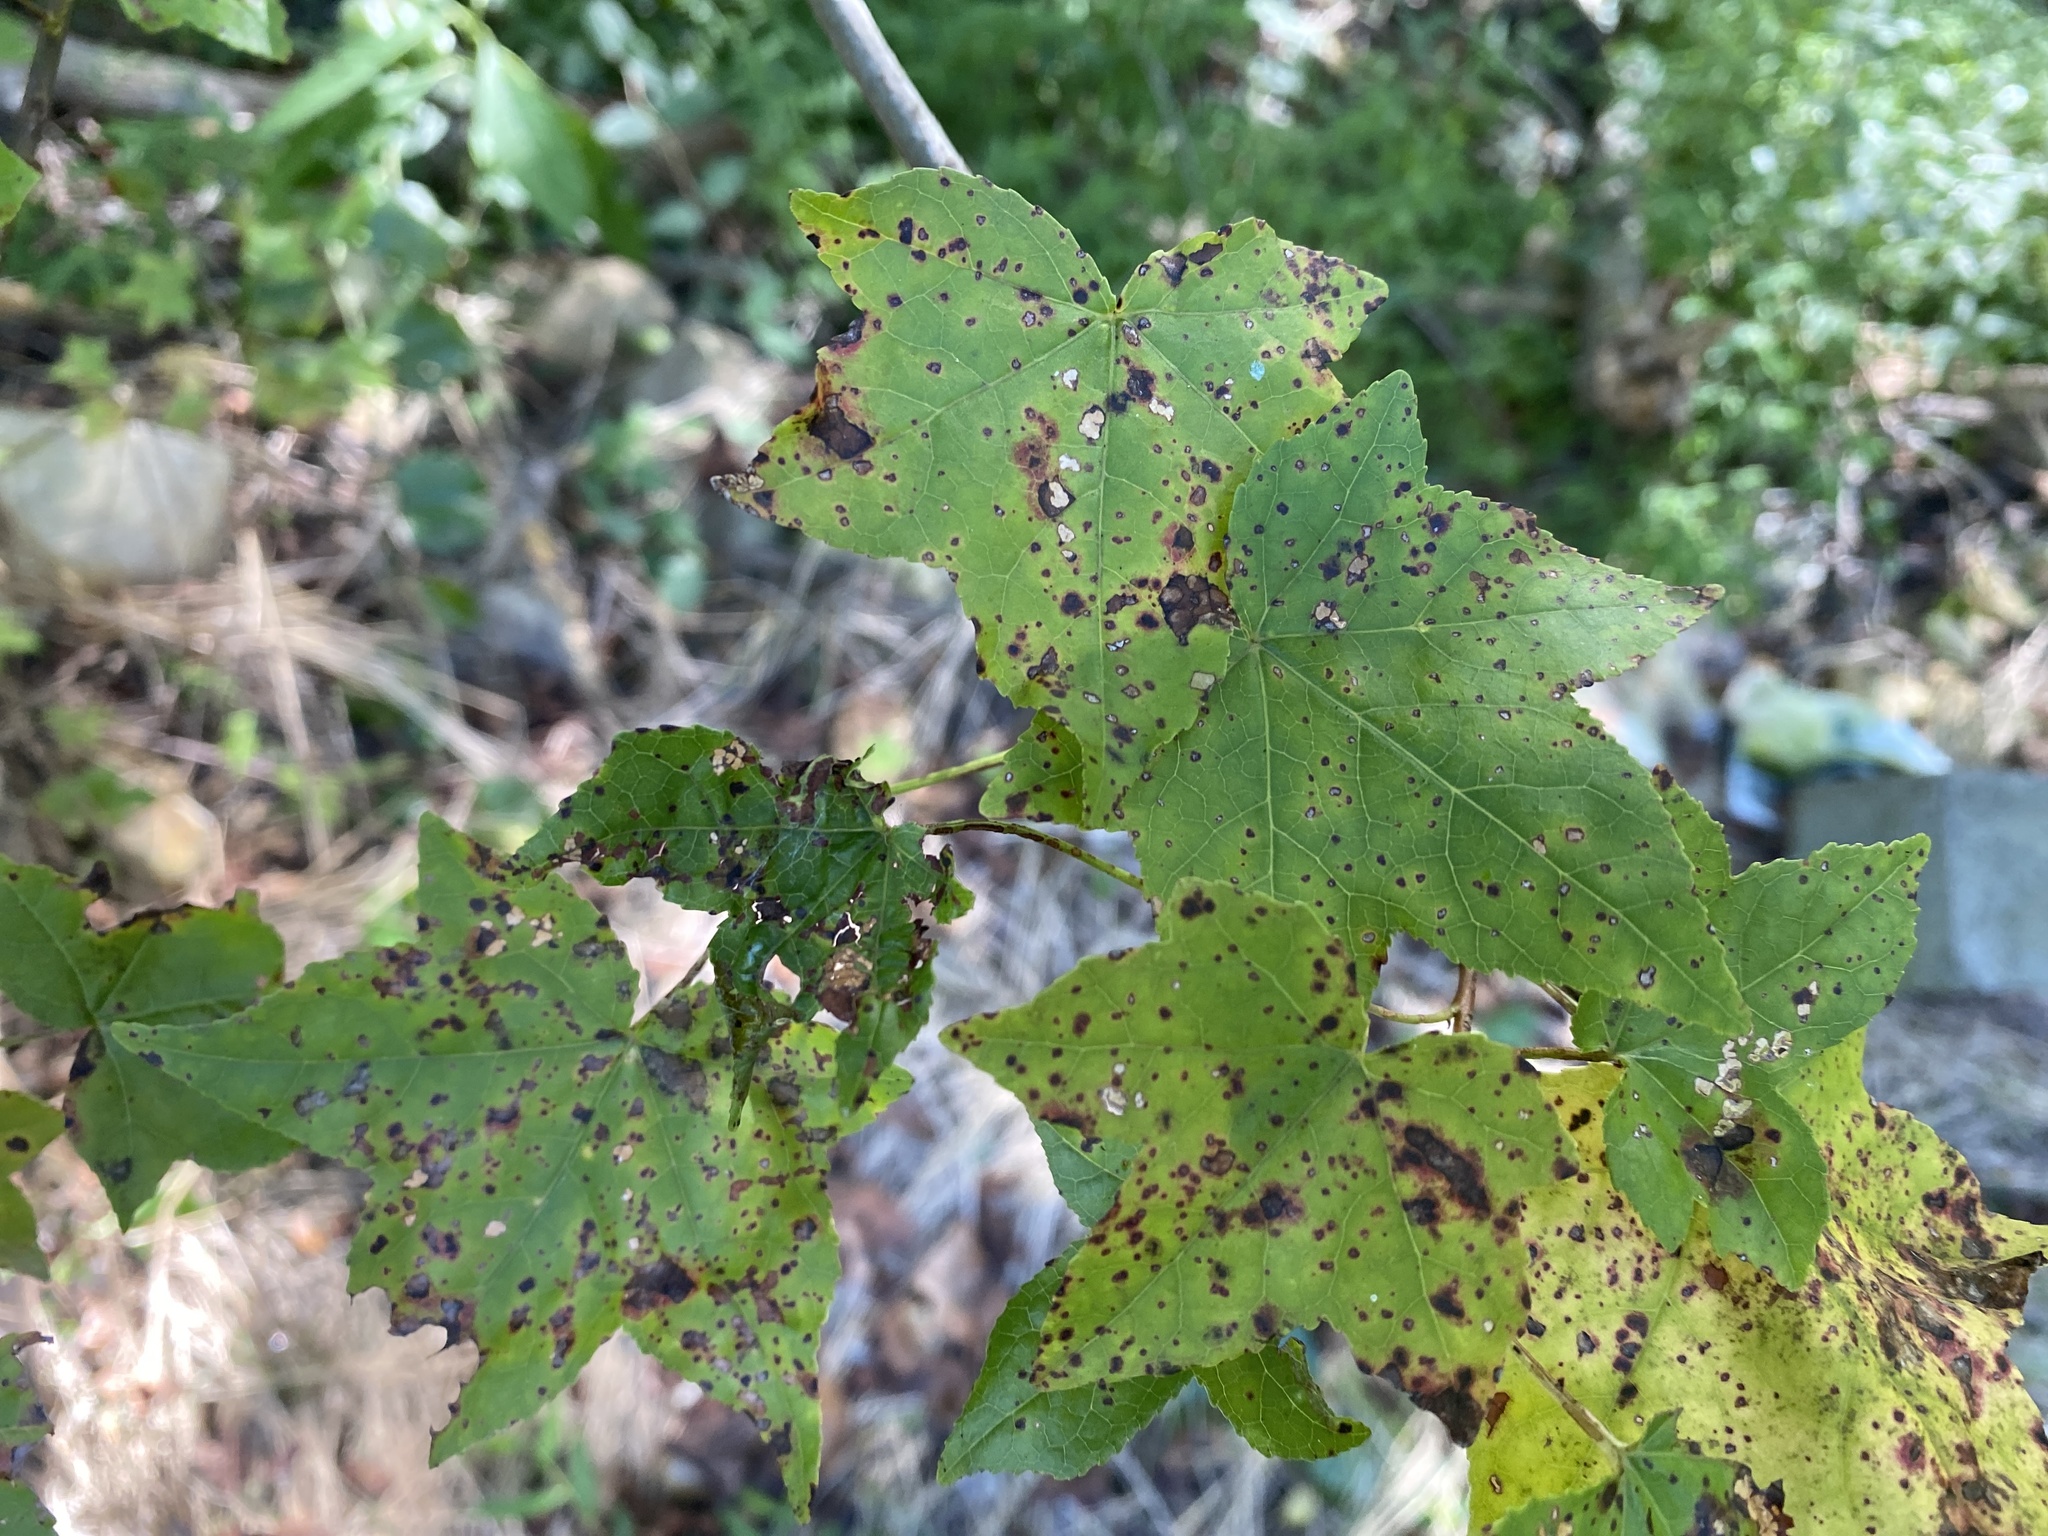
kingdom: Plantae
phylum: Tracheophyta
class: Magnoliopsida
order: Saxifragales
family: Altingiaceae
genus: Liquidambar
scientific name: Liquidambar styraciflua
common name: Sweet gum
